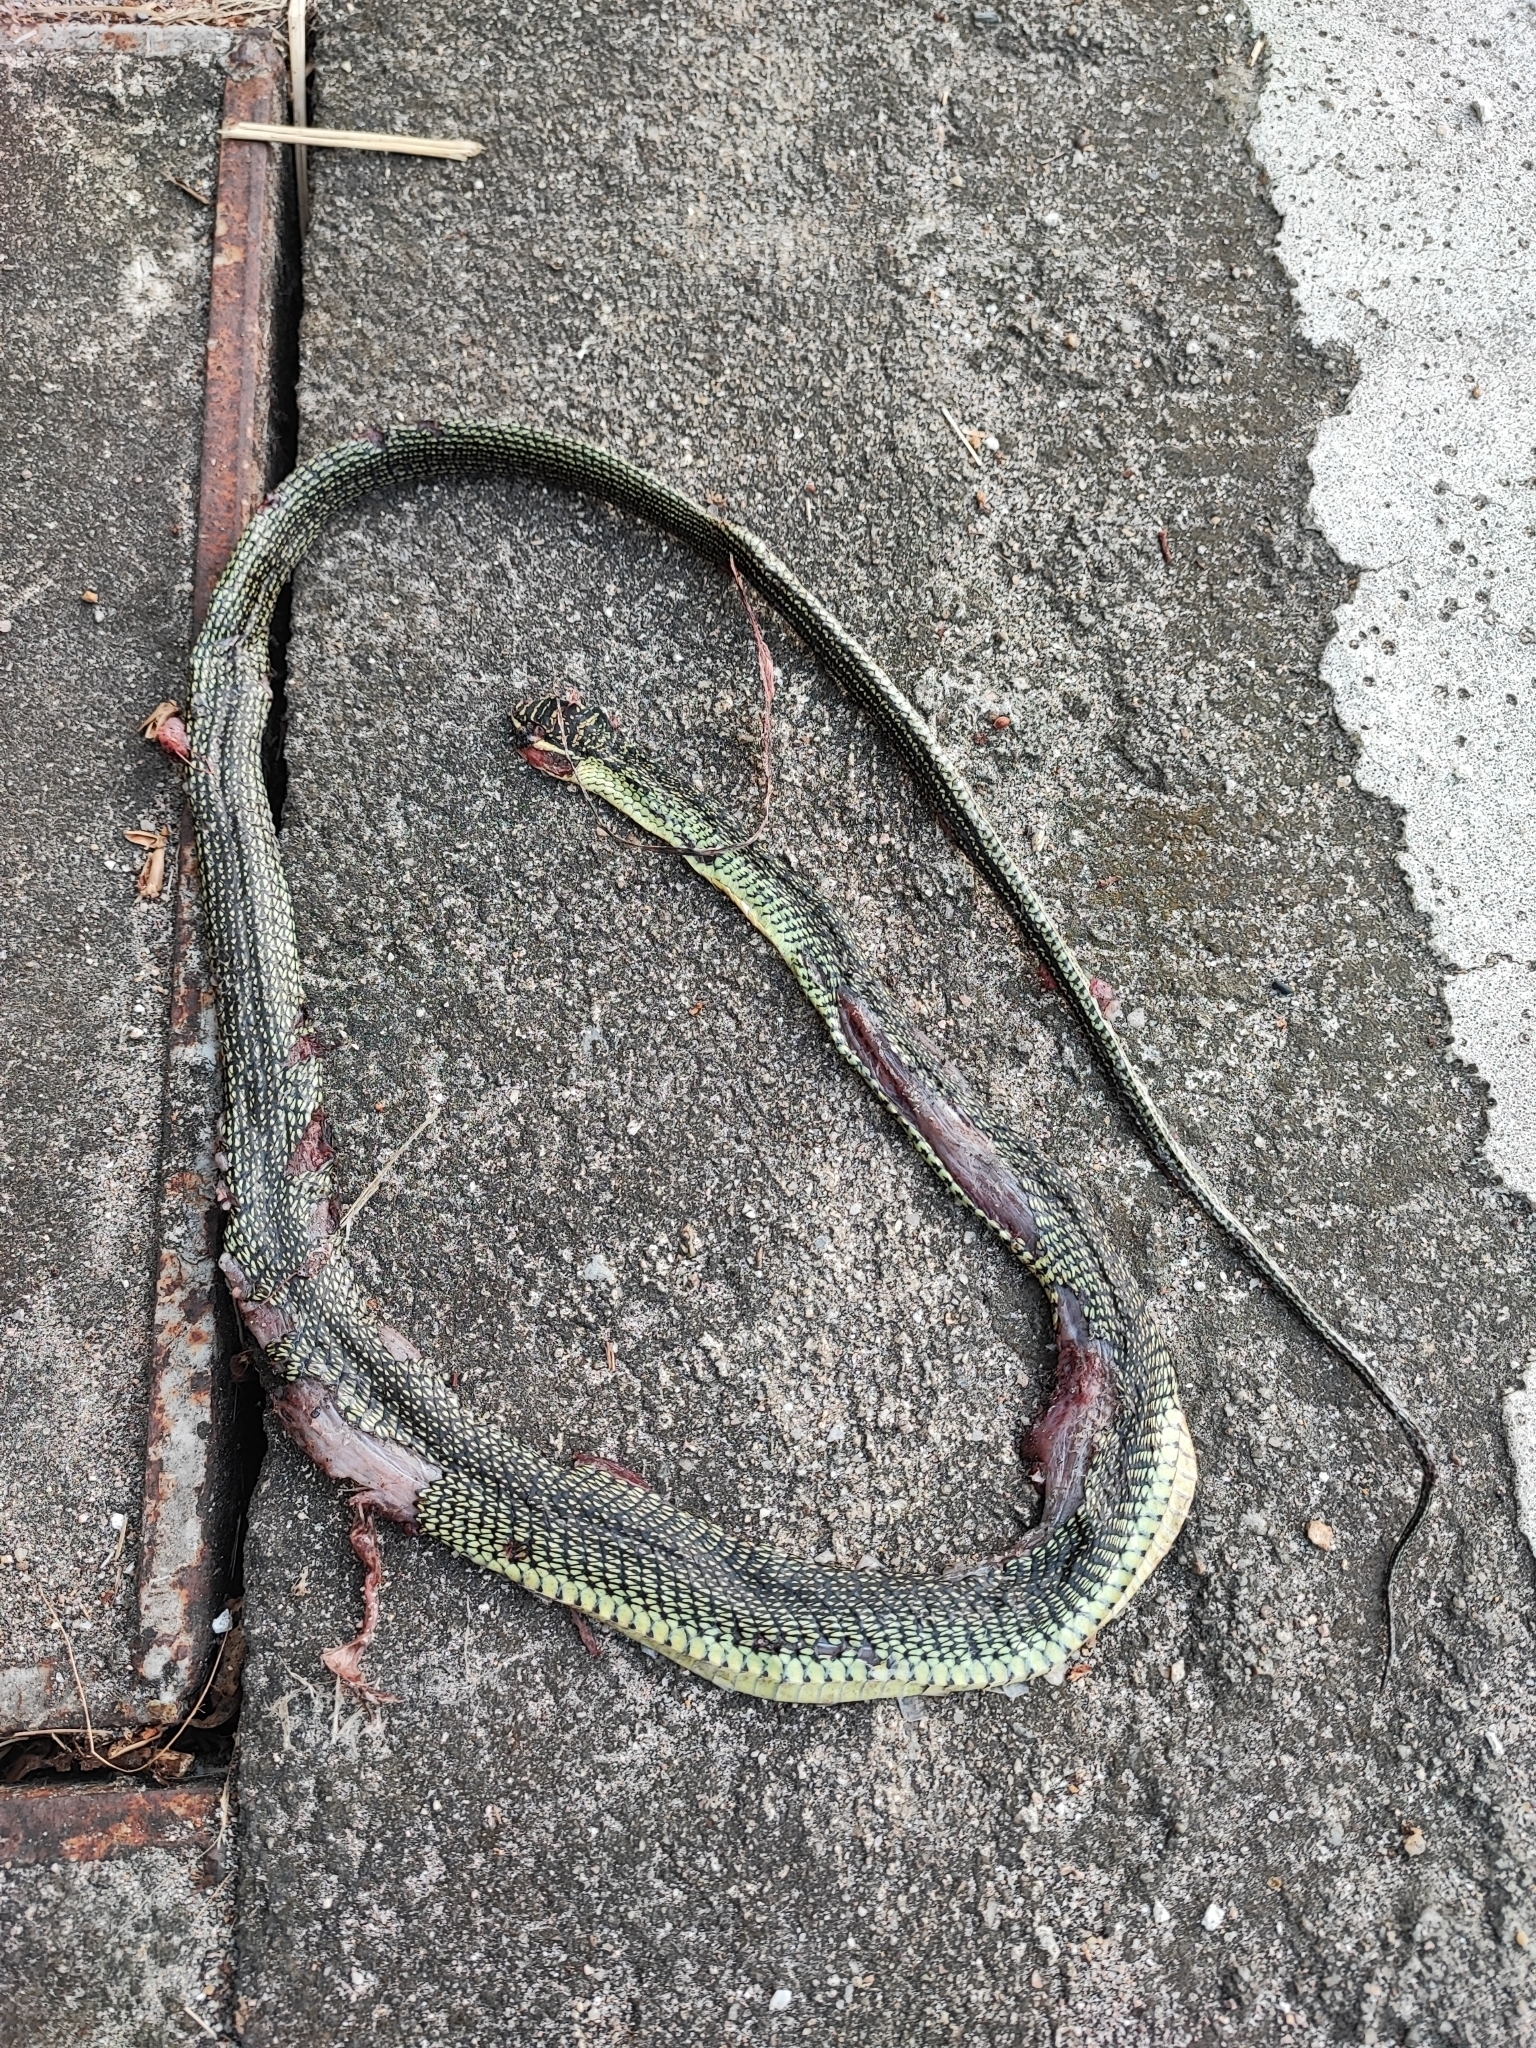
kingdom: Animalia
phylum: Chordata
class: Squamata
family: Colubridae
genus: Chrysopelea
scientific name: Chrysopelea ornata
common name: Golden flying snake
